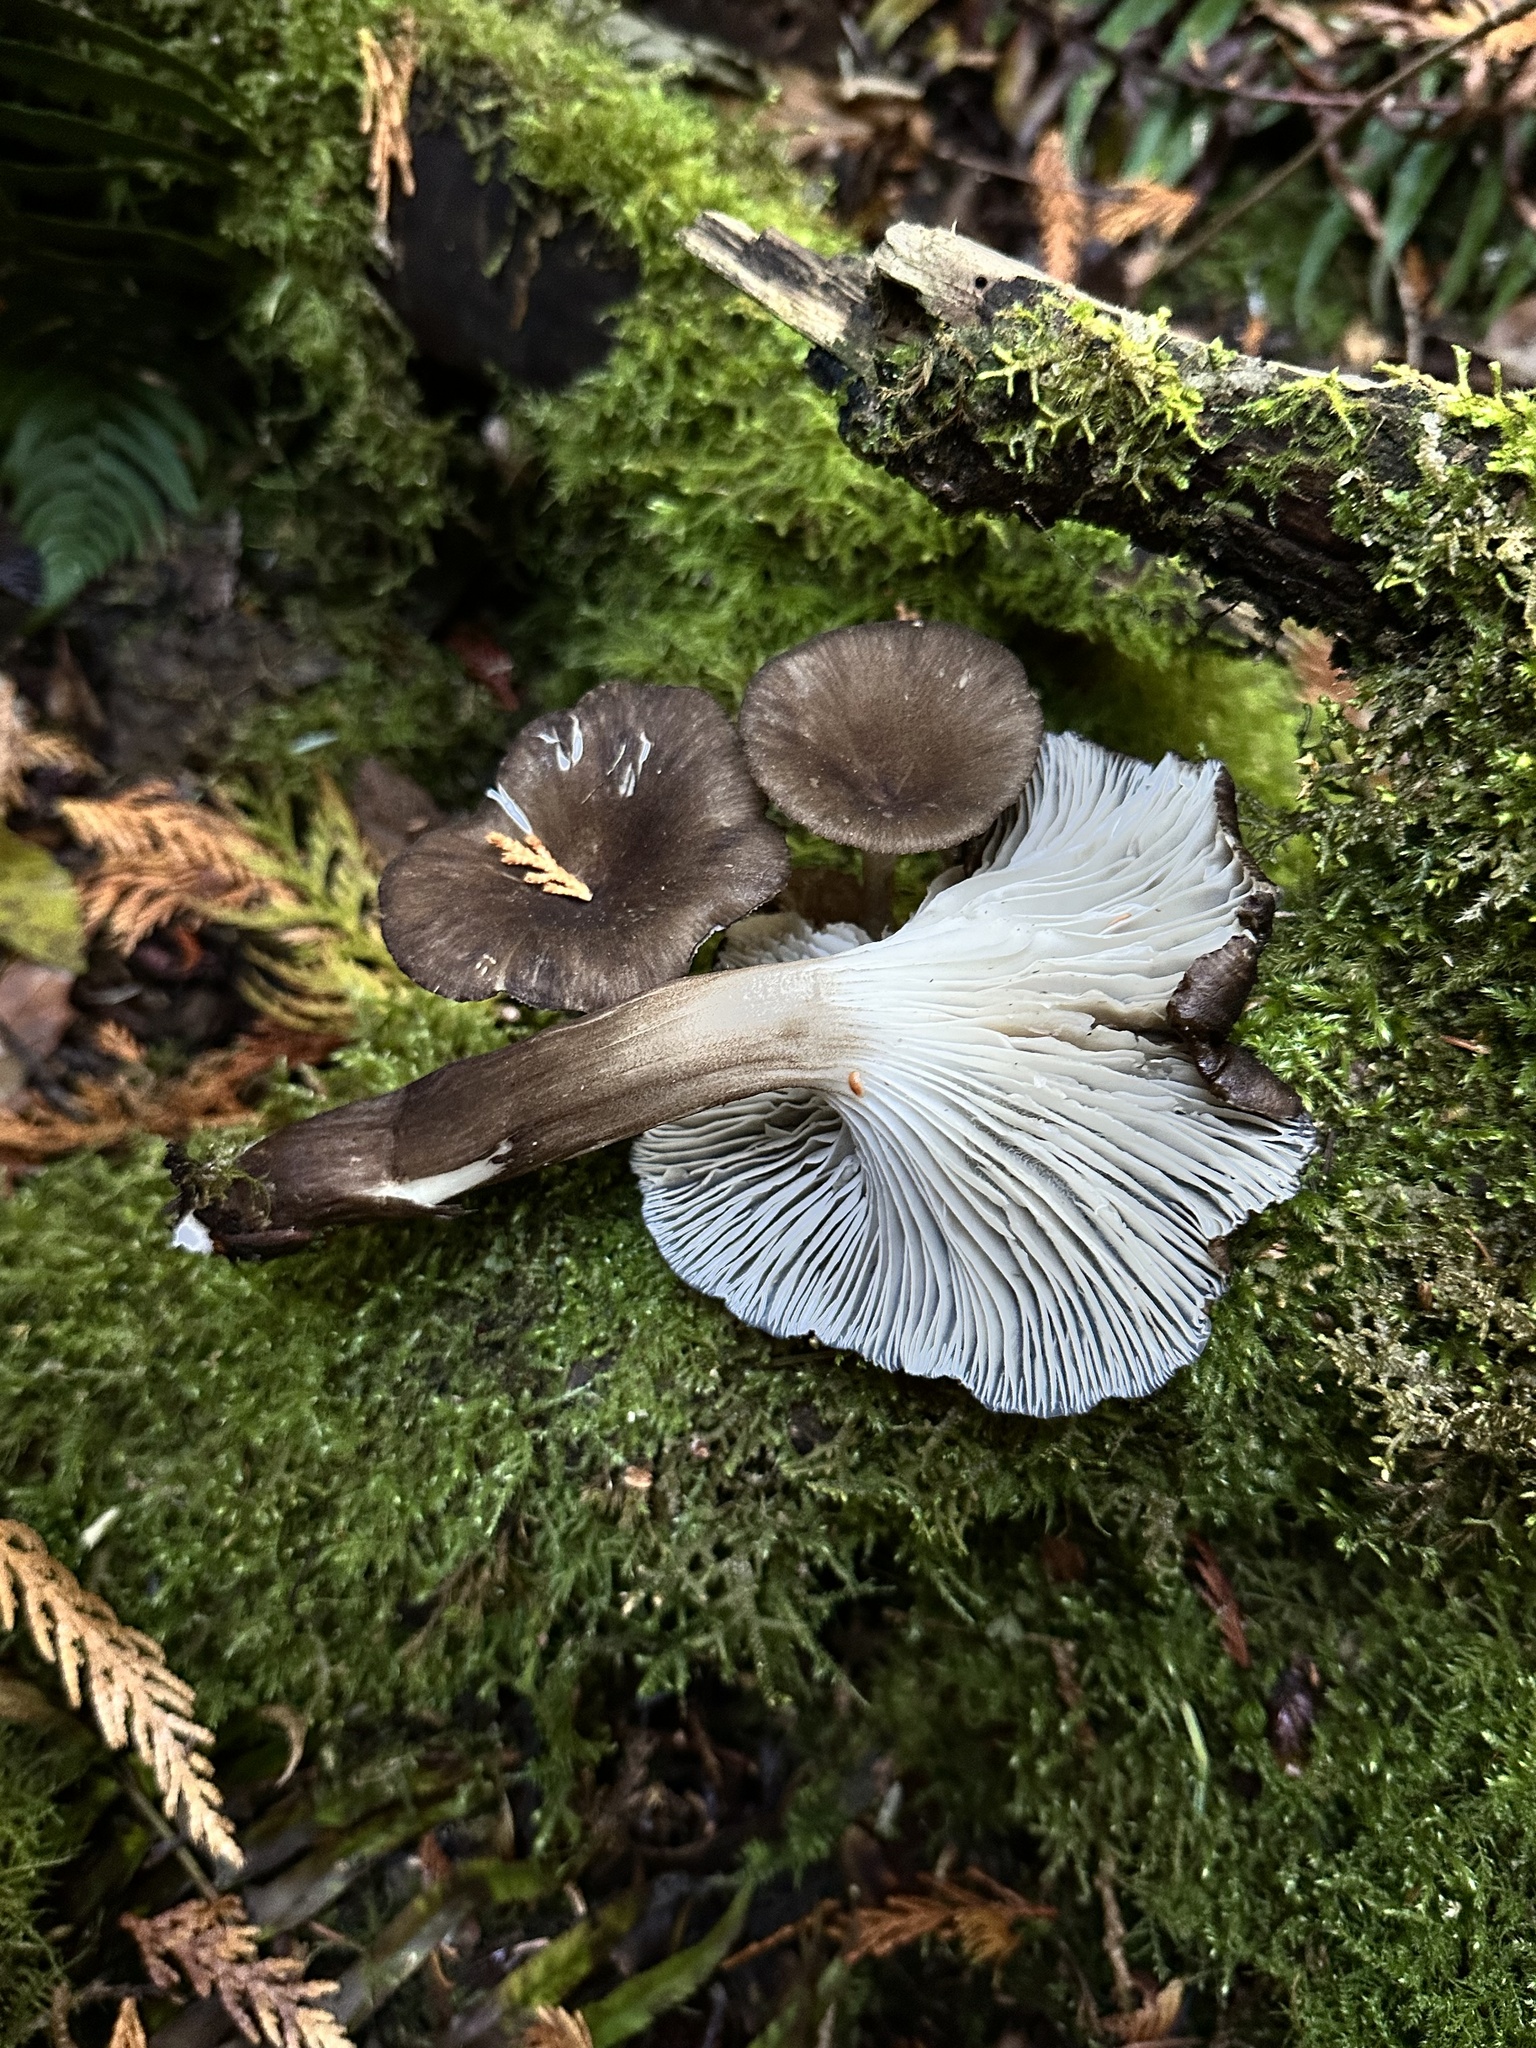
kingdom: Fungi
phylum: Basidiomycota
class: Agaricomycetes
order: Agaricales
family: Marasmiaceae
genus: Gerronema
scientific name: Gerronema atrialbum
